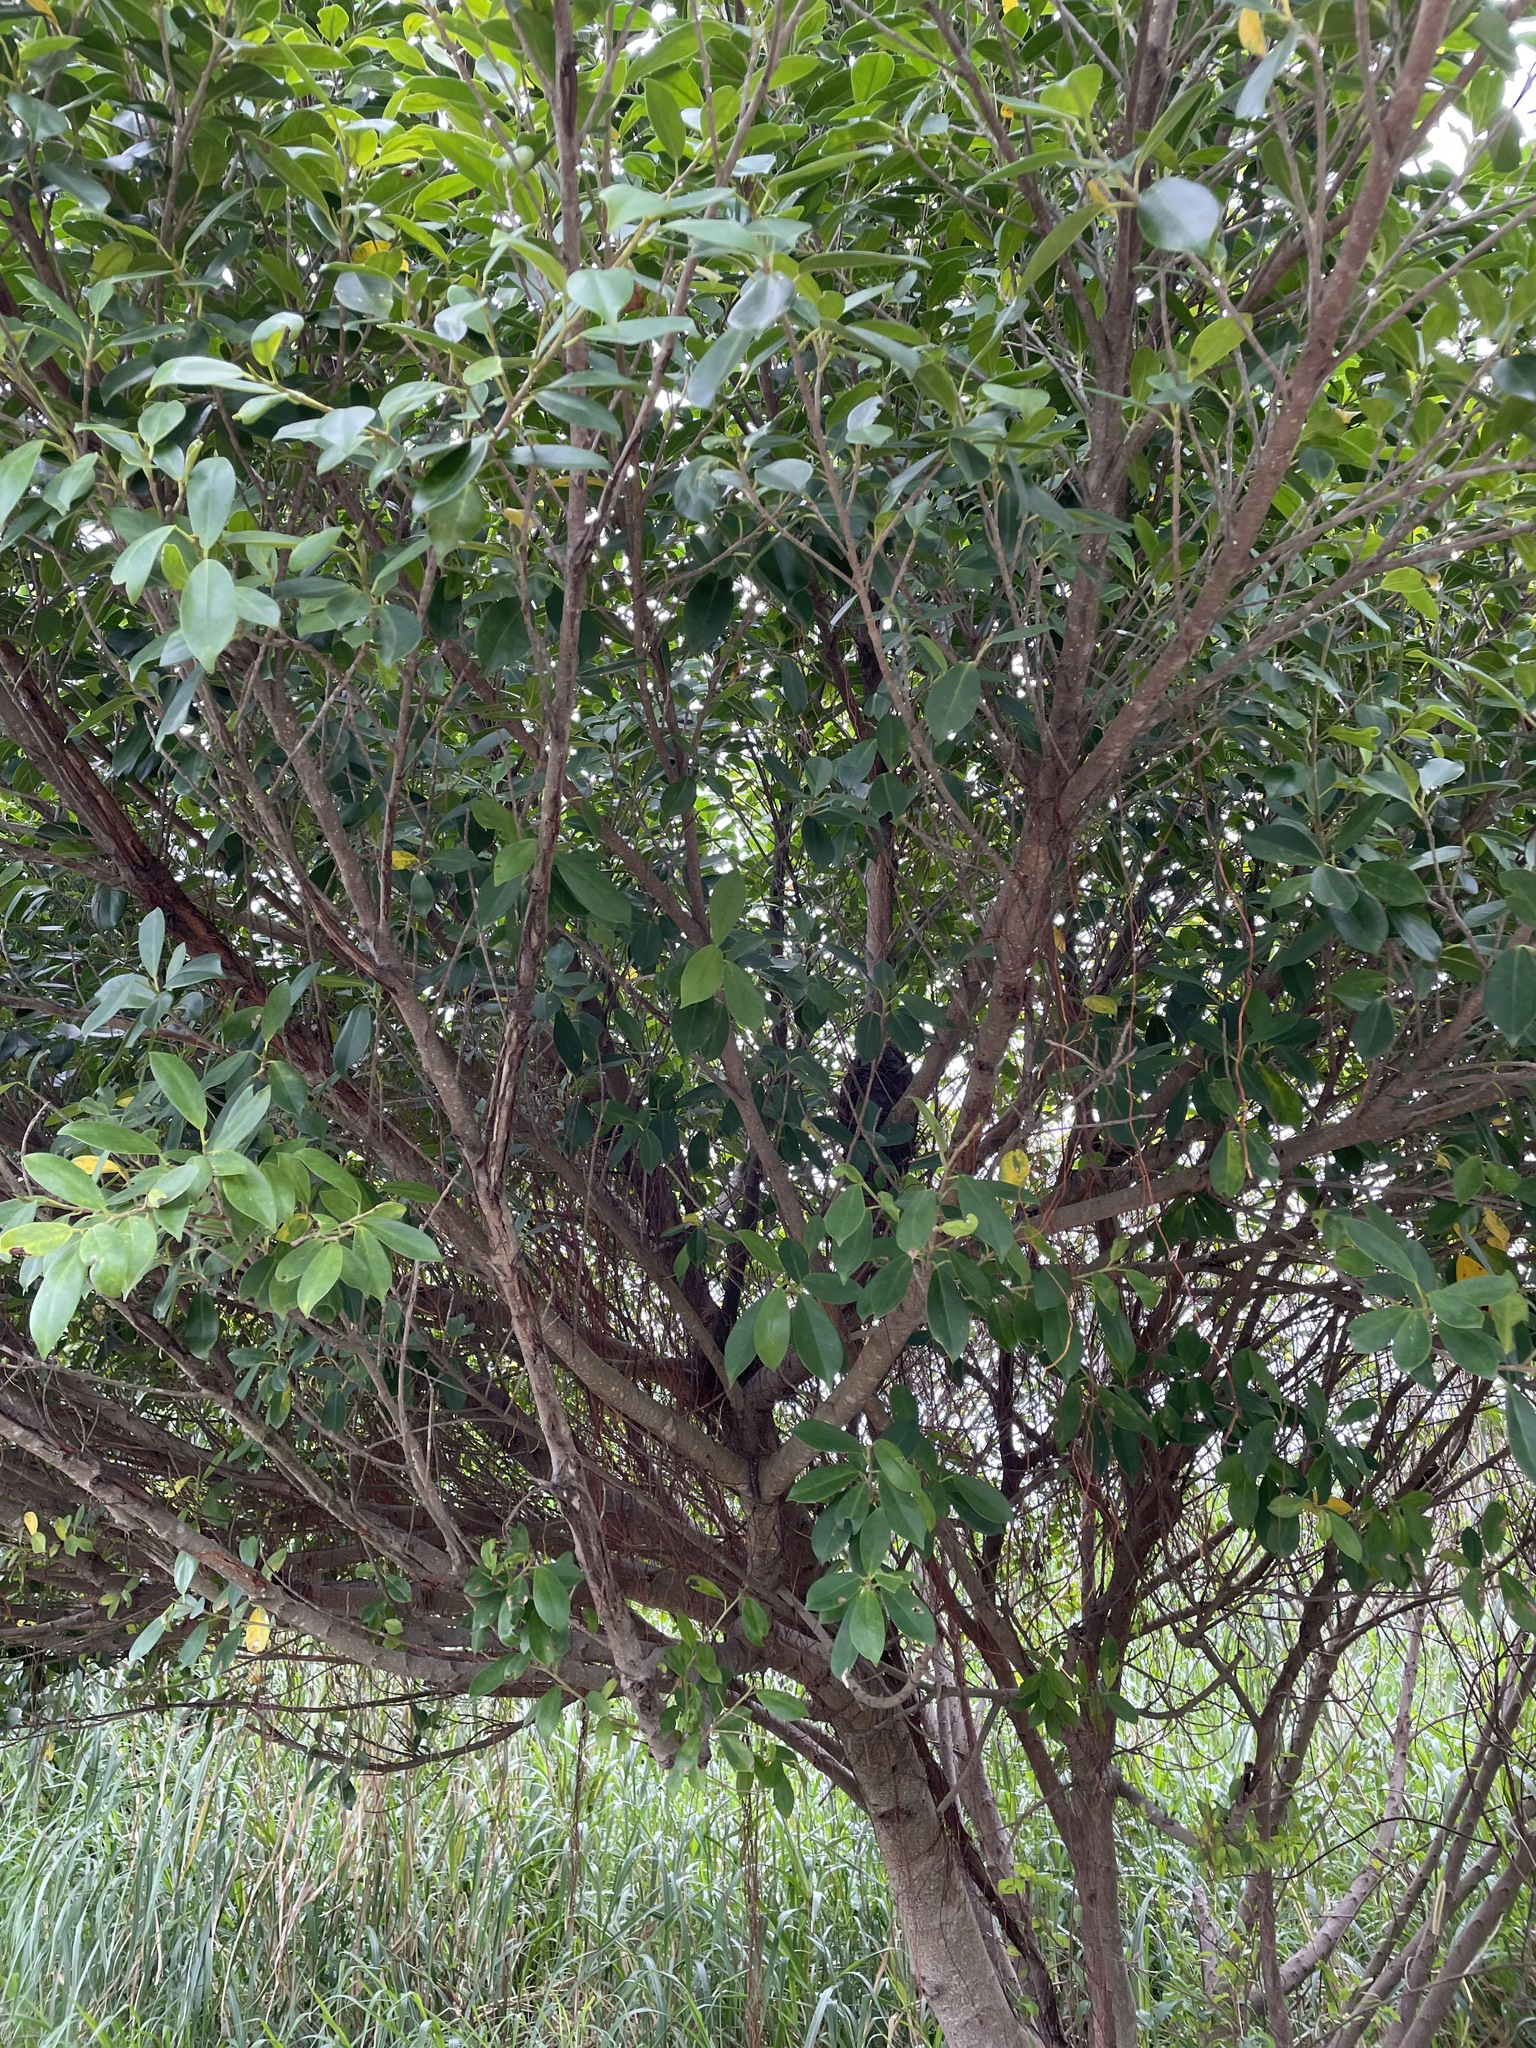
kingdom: Plantae
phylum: Tracheophyta
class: Magnoliopsida
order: Rosales
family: Moraceae
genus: Ficus
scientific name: Ficus microcarpa
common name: Chinese banyan
